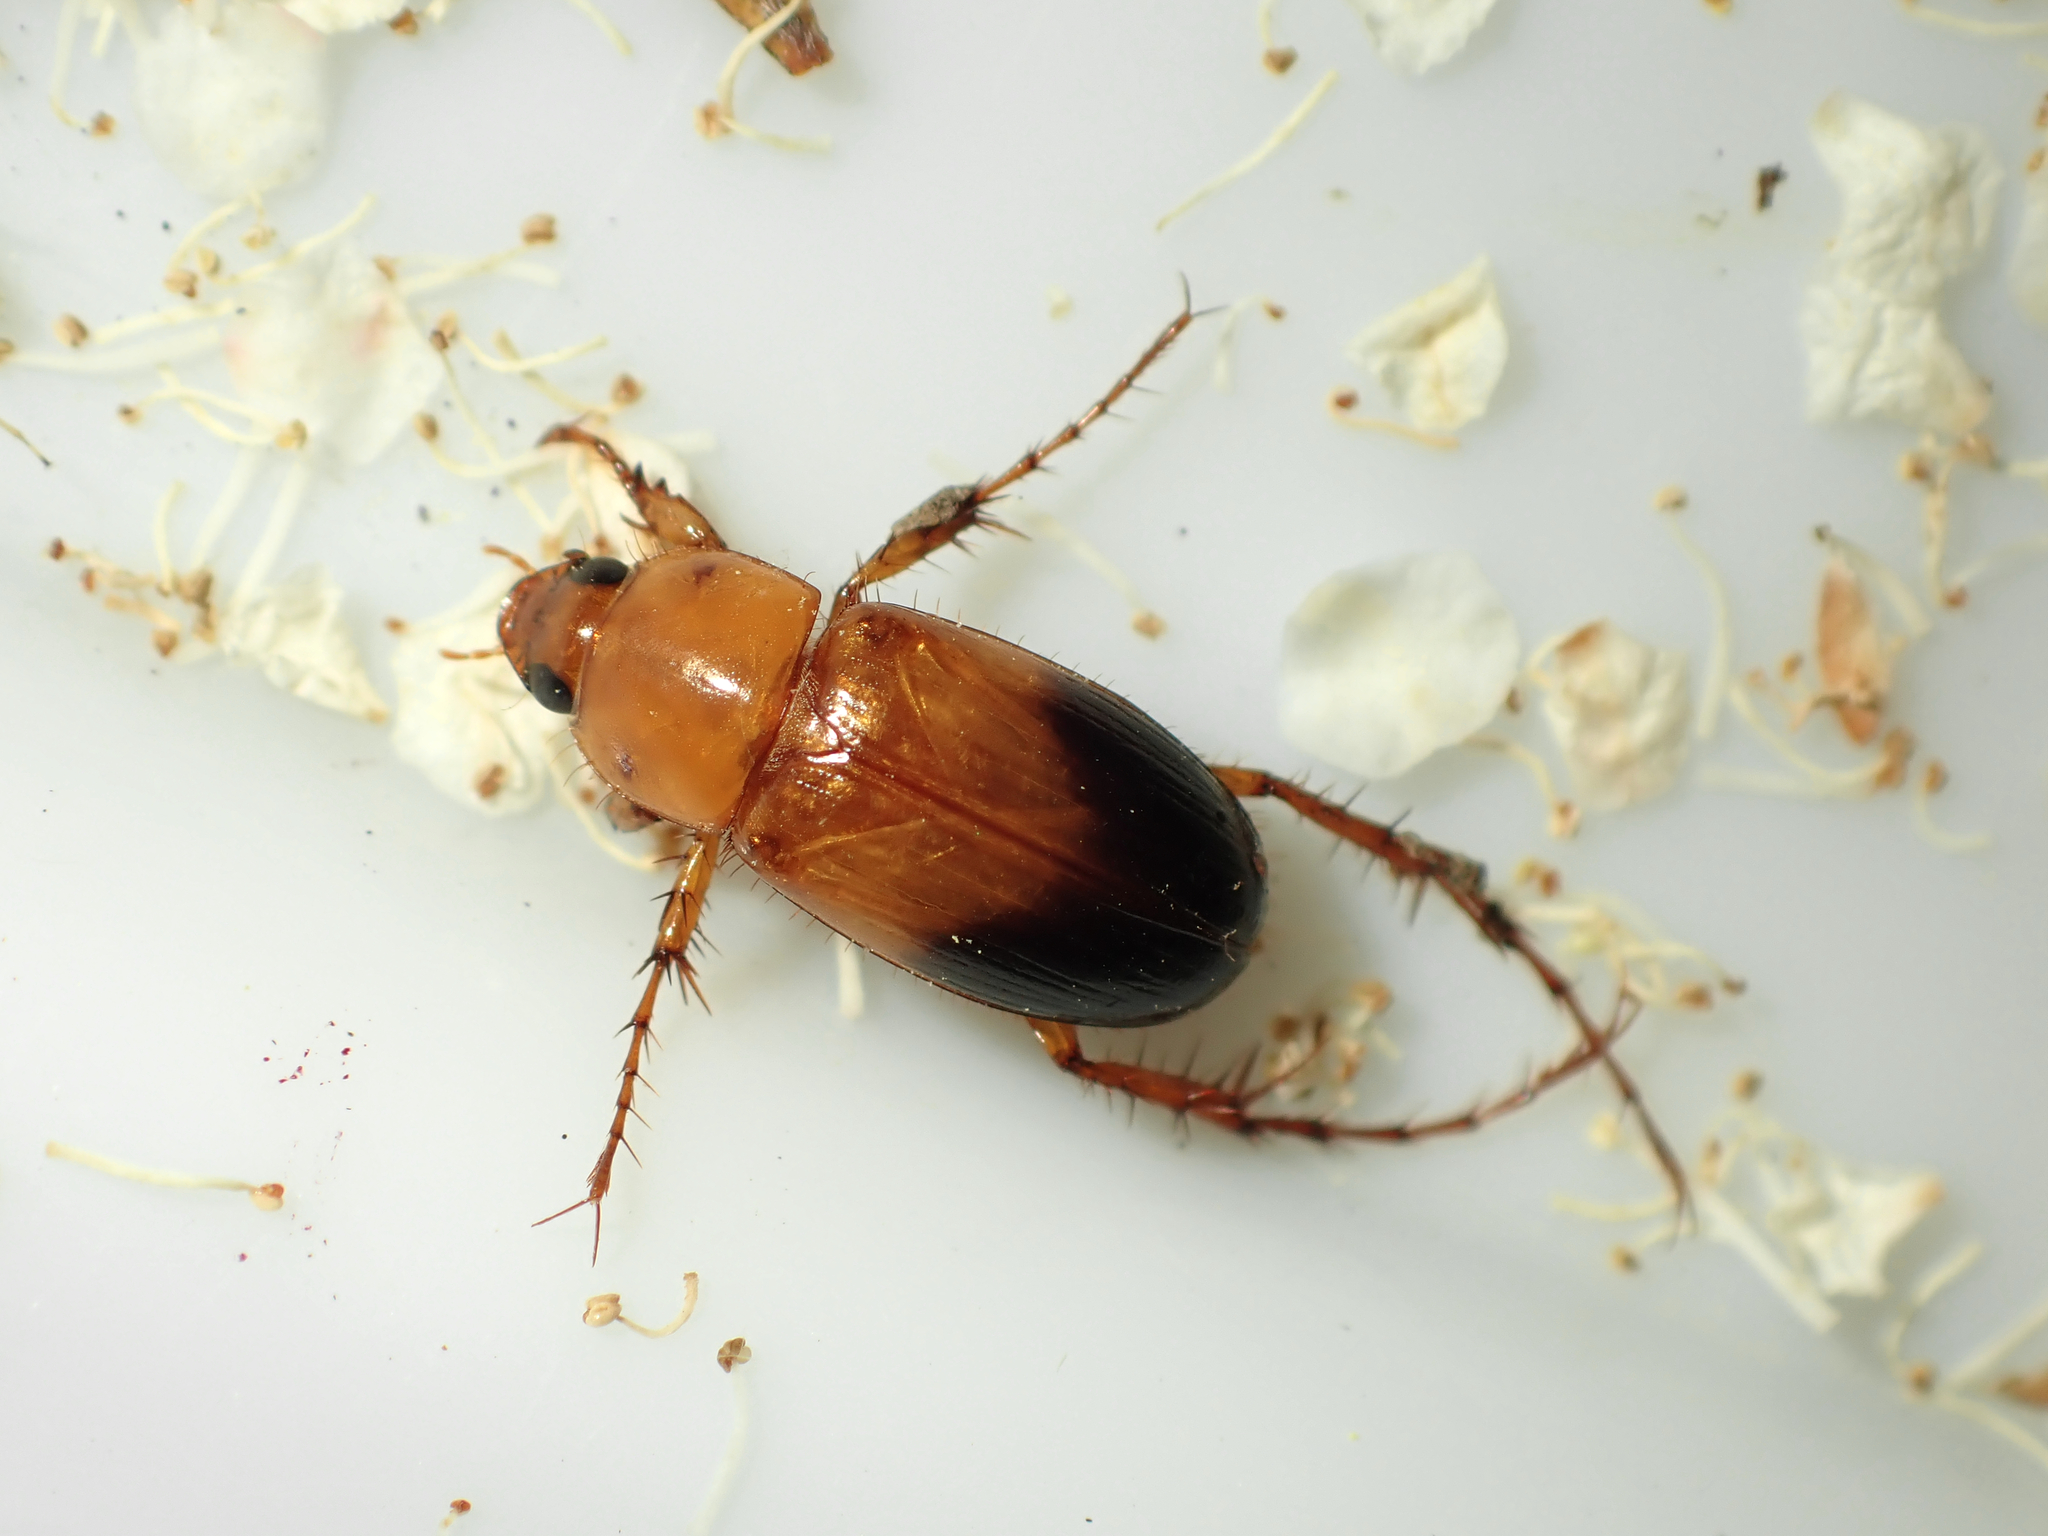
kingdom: Animalia
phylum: Arthropoda
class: Insecta
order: Coleoptera
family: Scarabaeidae
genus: Phyllotocus
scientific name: Phyllotocus macleayi
